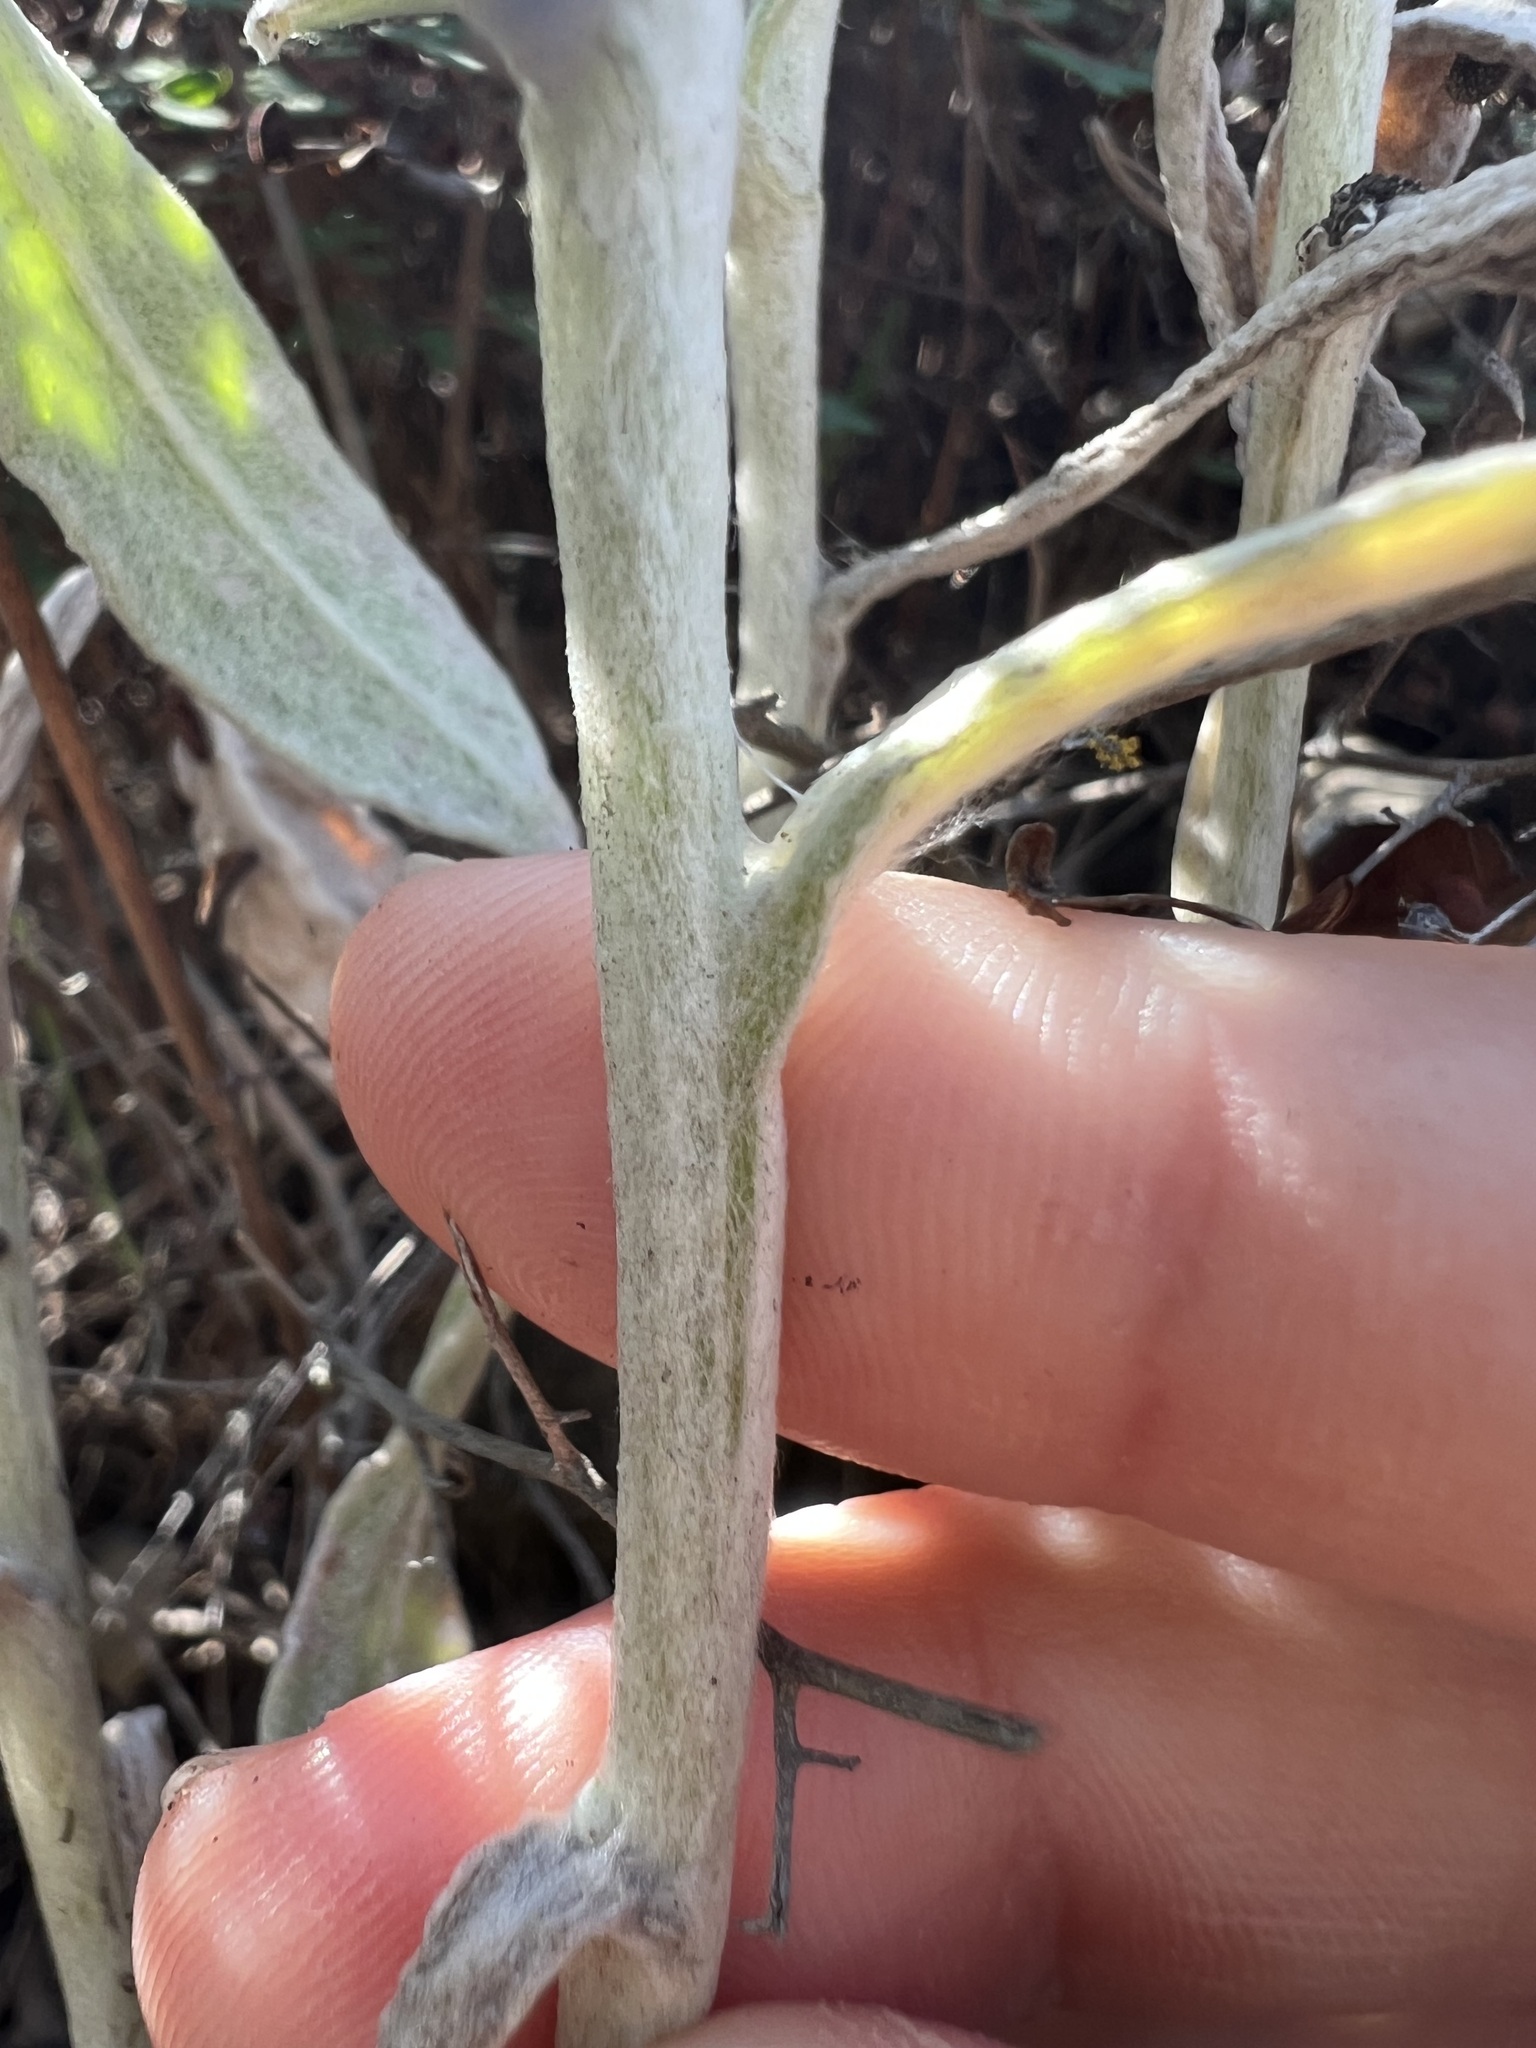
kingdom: Plantae
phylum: Tracheophyta
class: Magnoliopsida
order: Asterales
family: Asteraceae
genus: Pseudognaphalium
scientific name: Pseudognaphalium microcephalum
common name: San diego rabbit-tobacco
